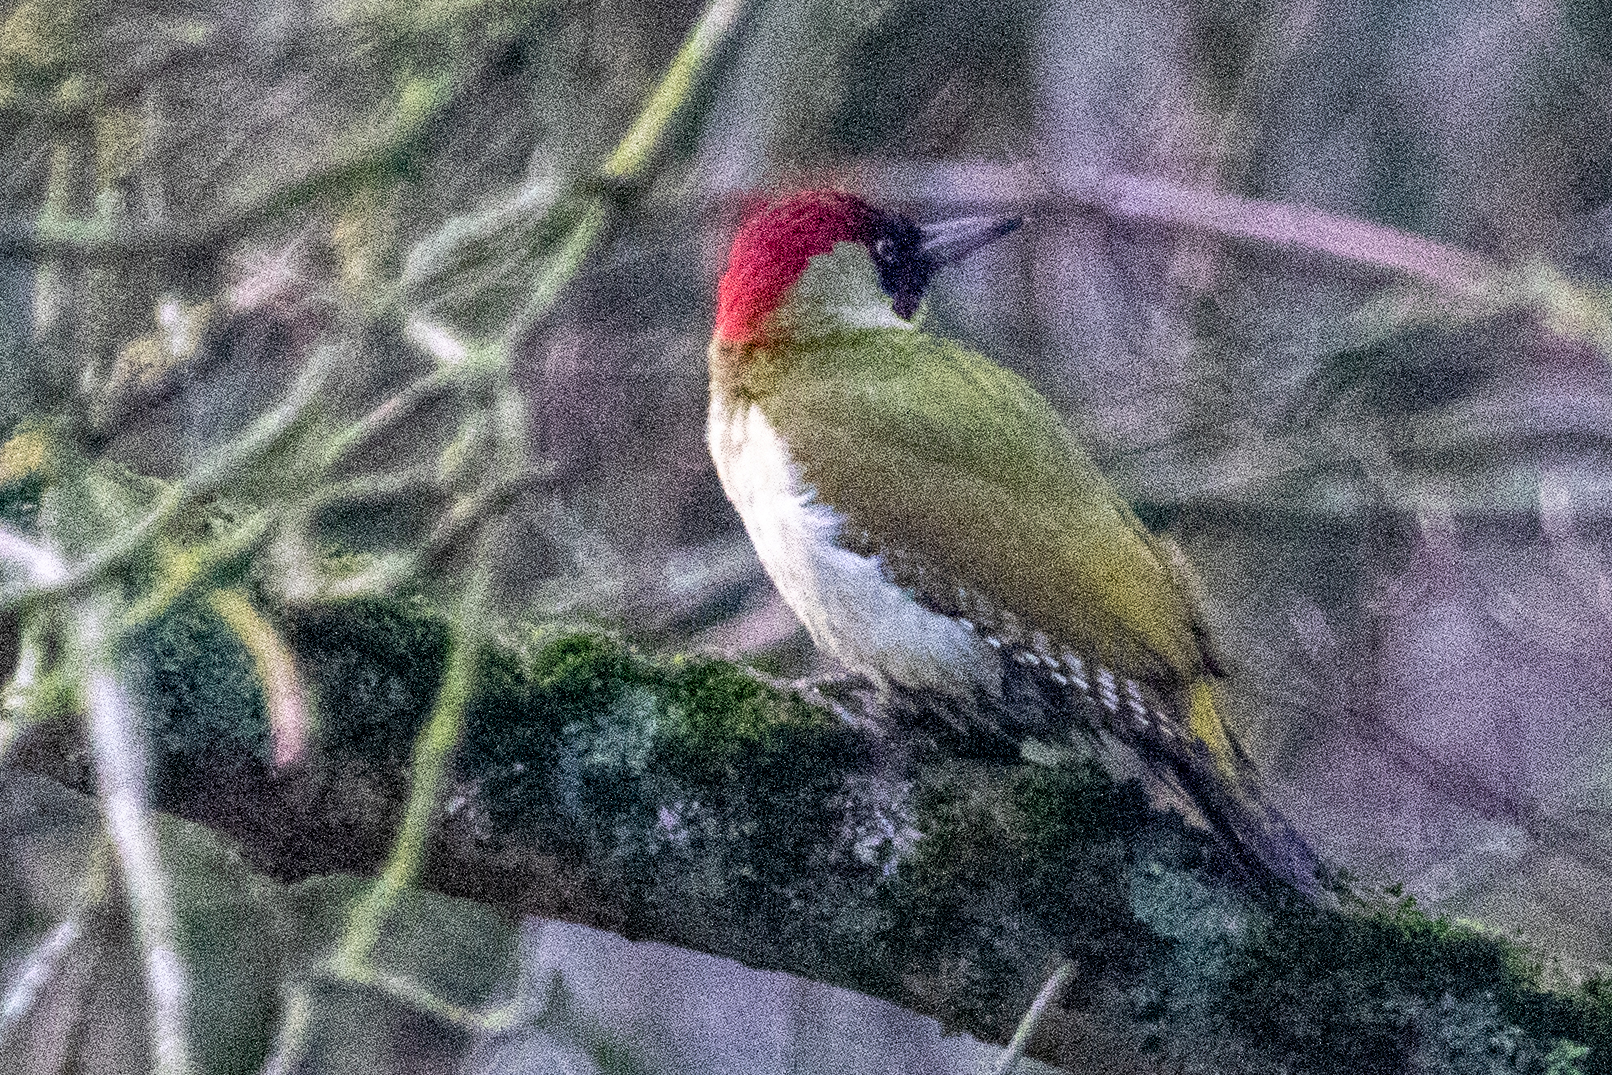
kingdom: Animalia
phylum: Chordata
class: Aves
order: Piciformes
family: Picidae
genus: Picus
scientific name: Picus viridis
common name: European green woodpecker
